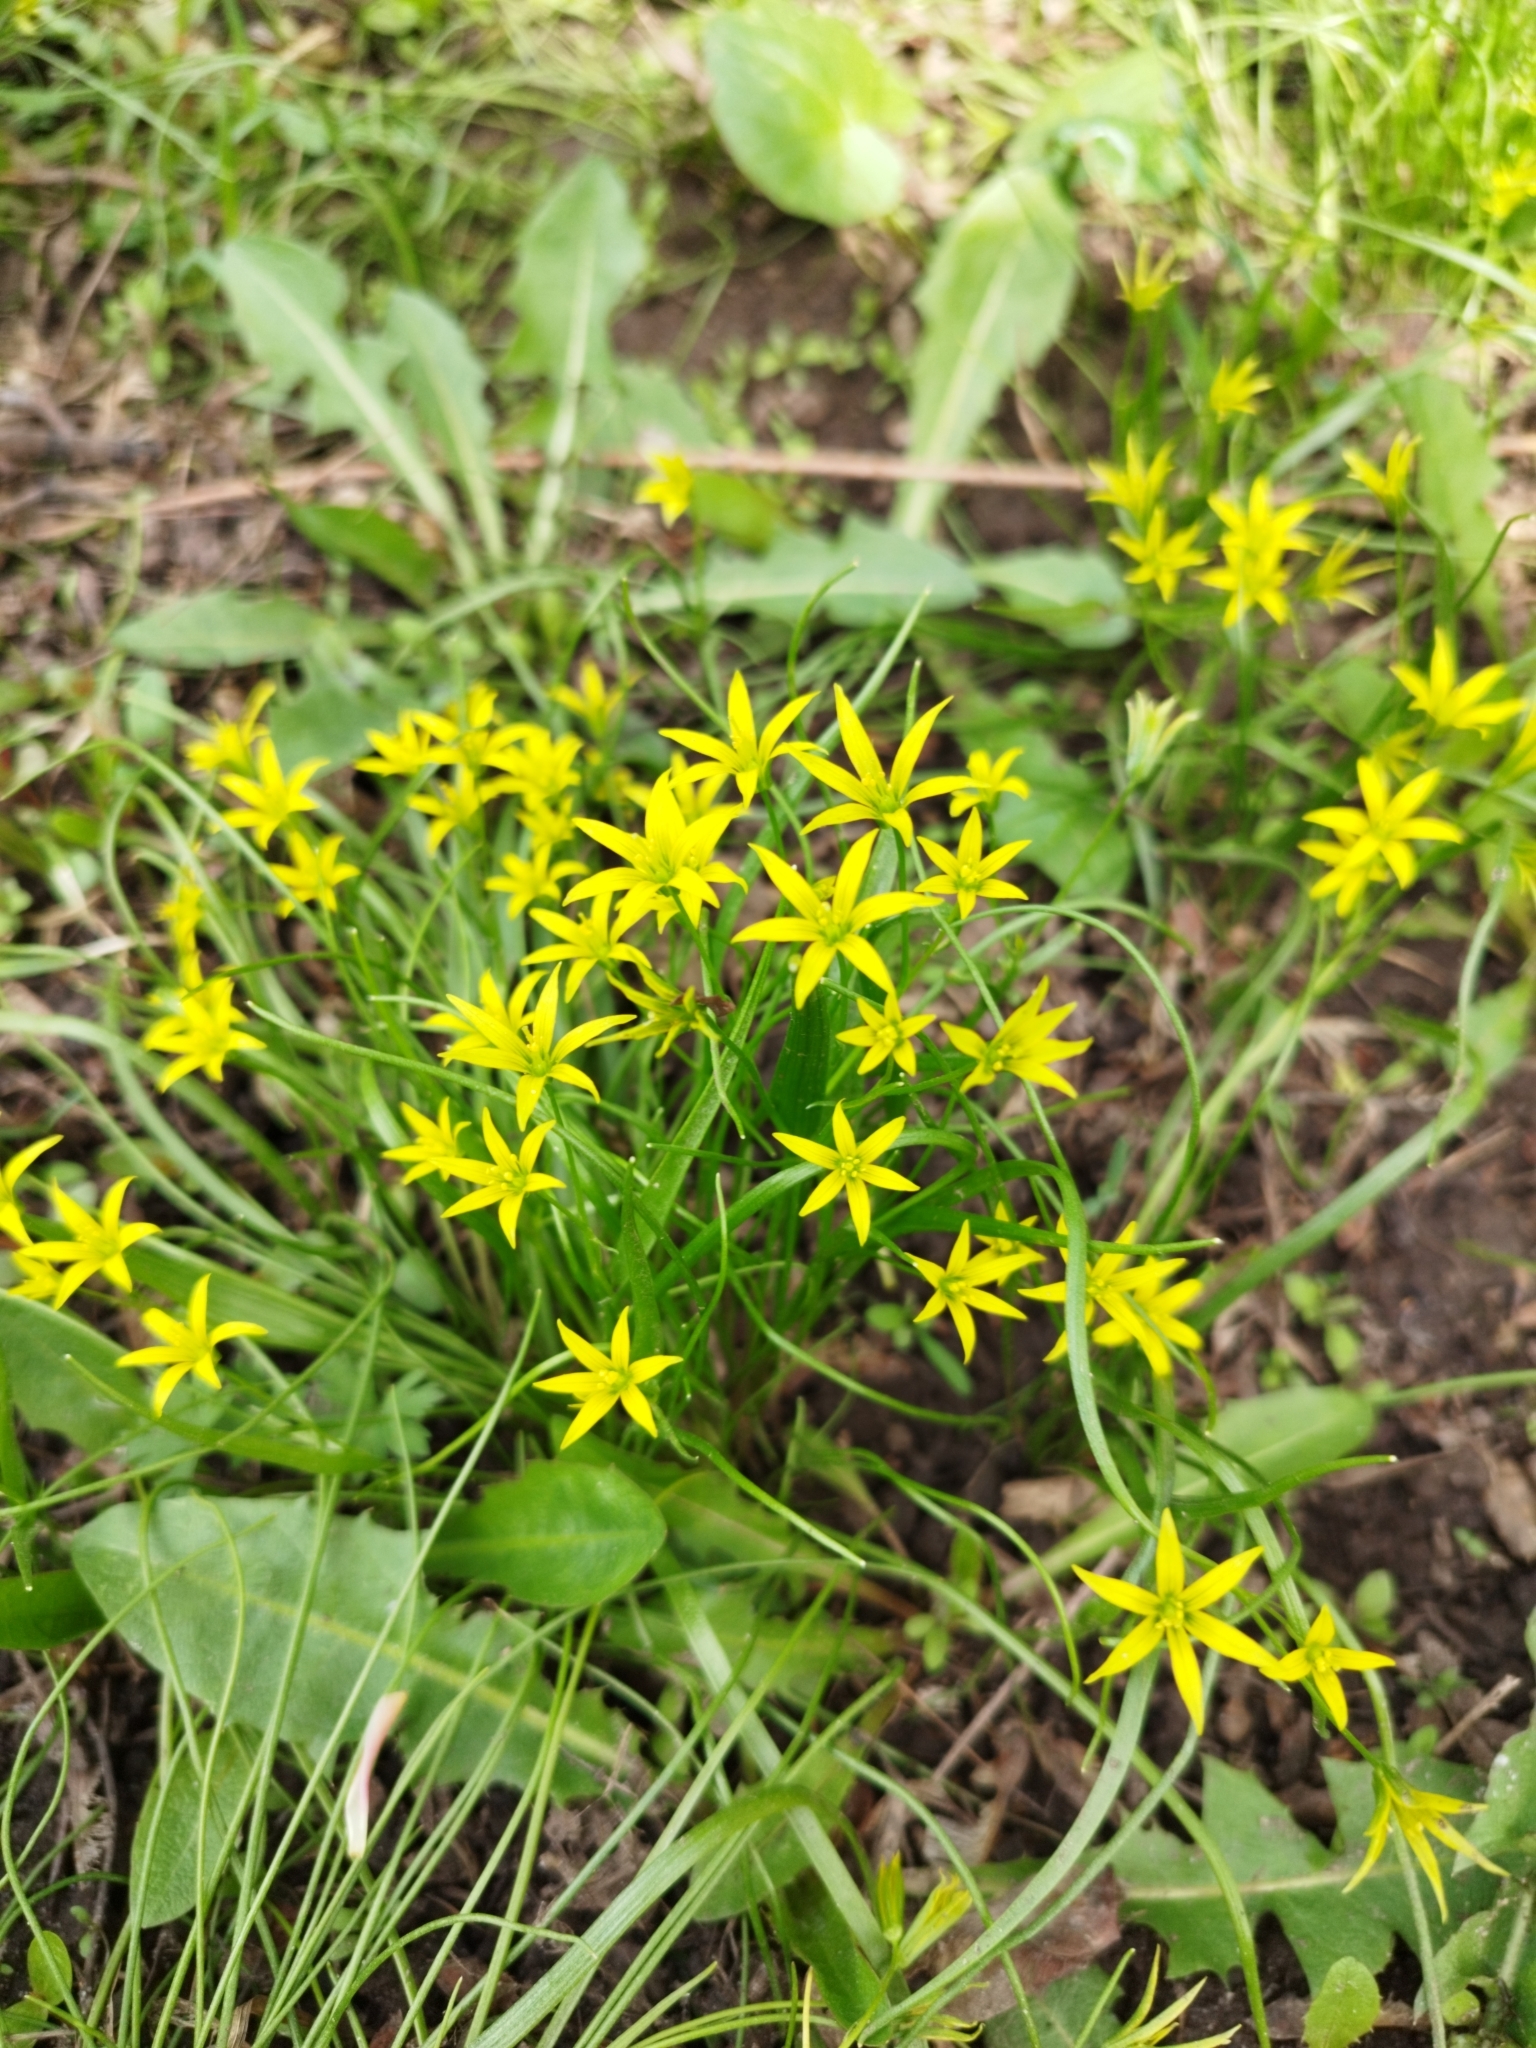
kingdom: Plantae
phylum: Tracheophyta
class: Liliopsida
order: Liliales
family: Liliaceae
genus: Gagea
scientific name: Gagea minima
